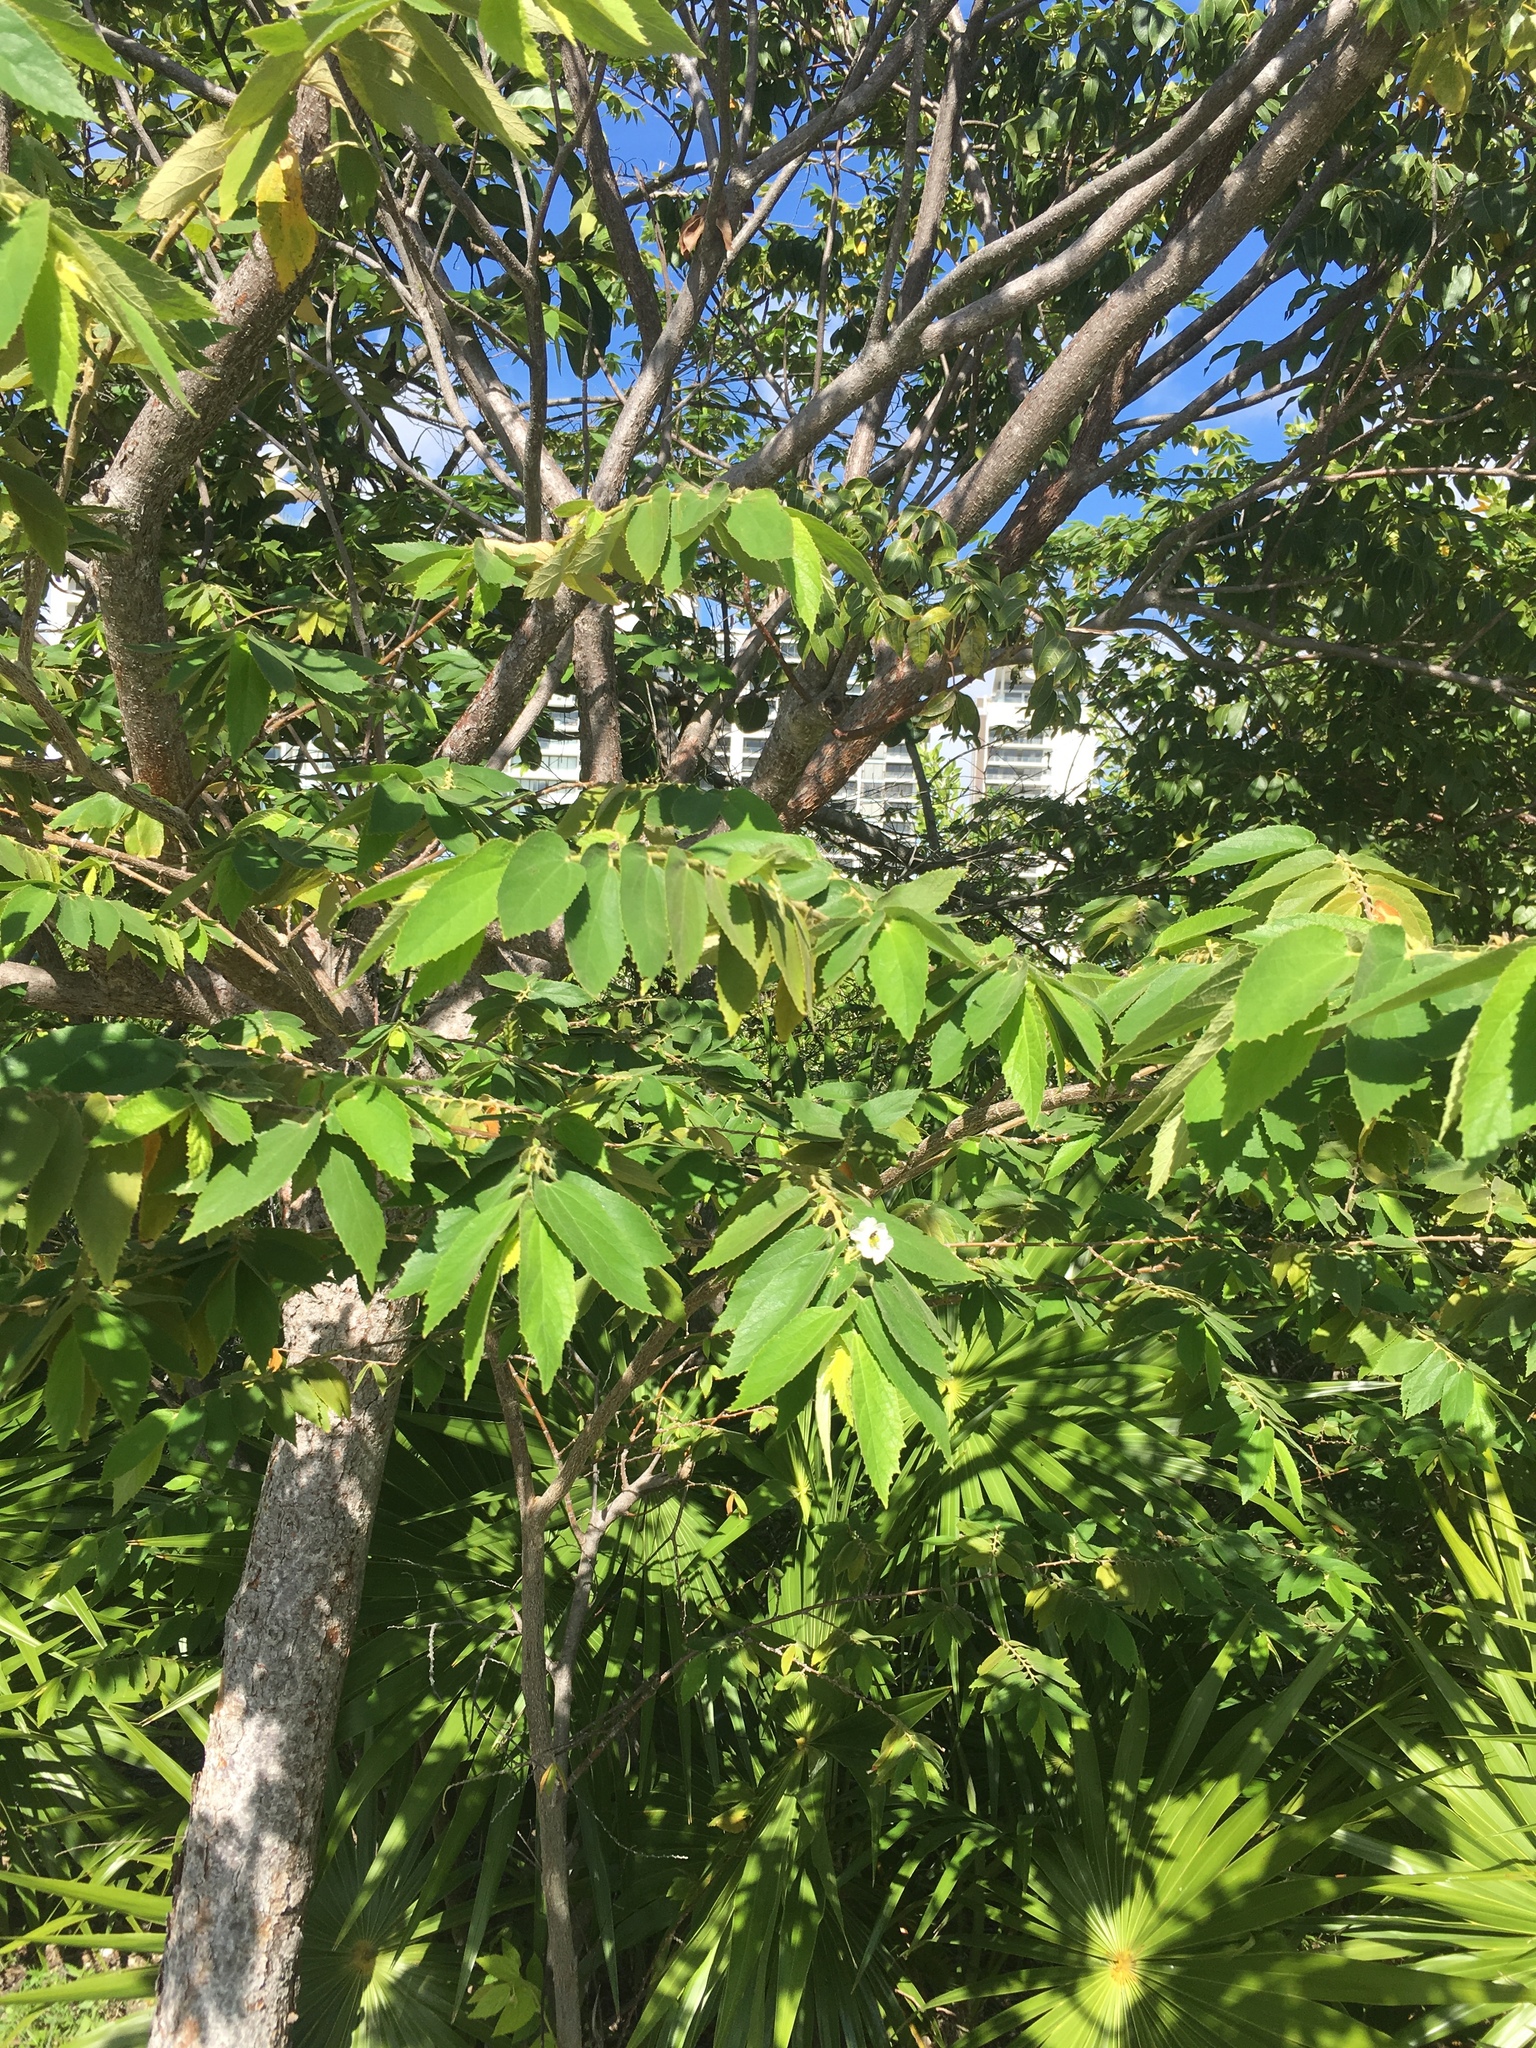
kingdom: Plantae
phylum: Tracheophyta
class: Magnoliopsida
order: Malvales
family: Muntingiaceae
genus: Muntingia
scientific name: Muntingia calabura
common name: Strawberrytree
